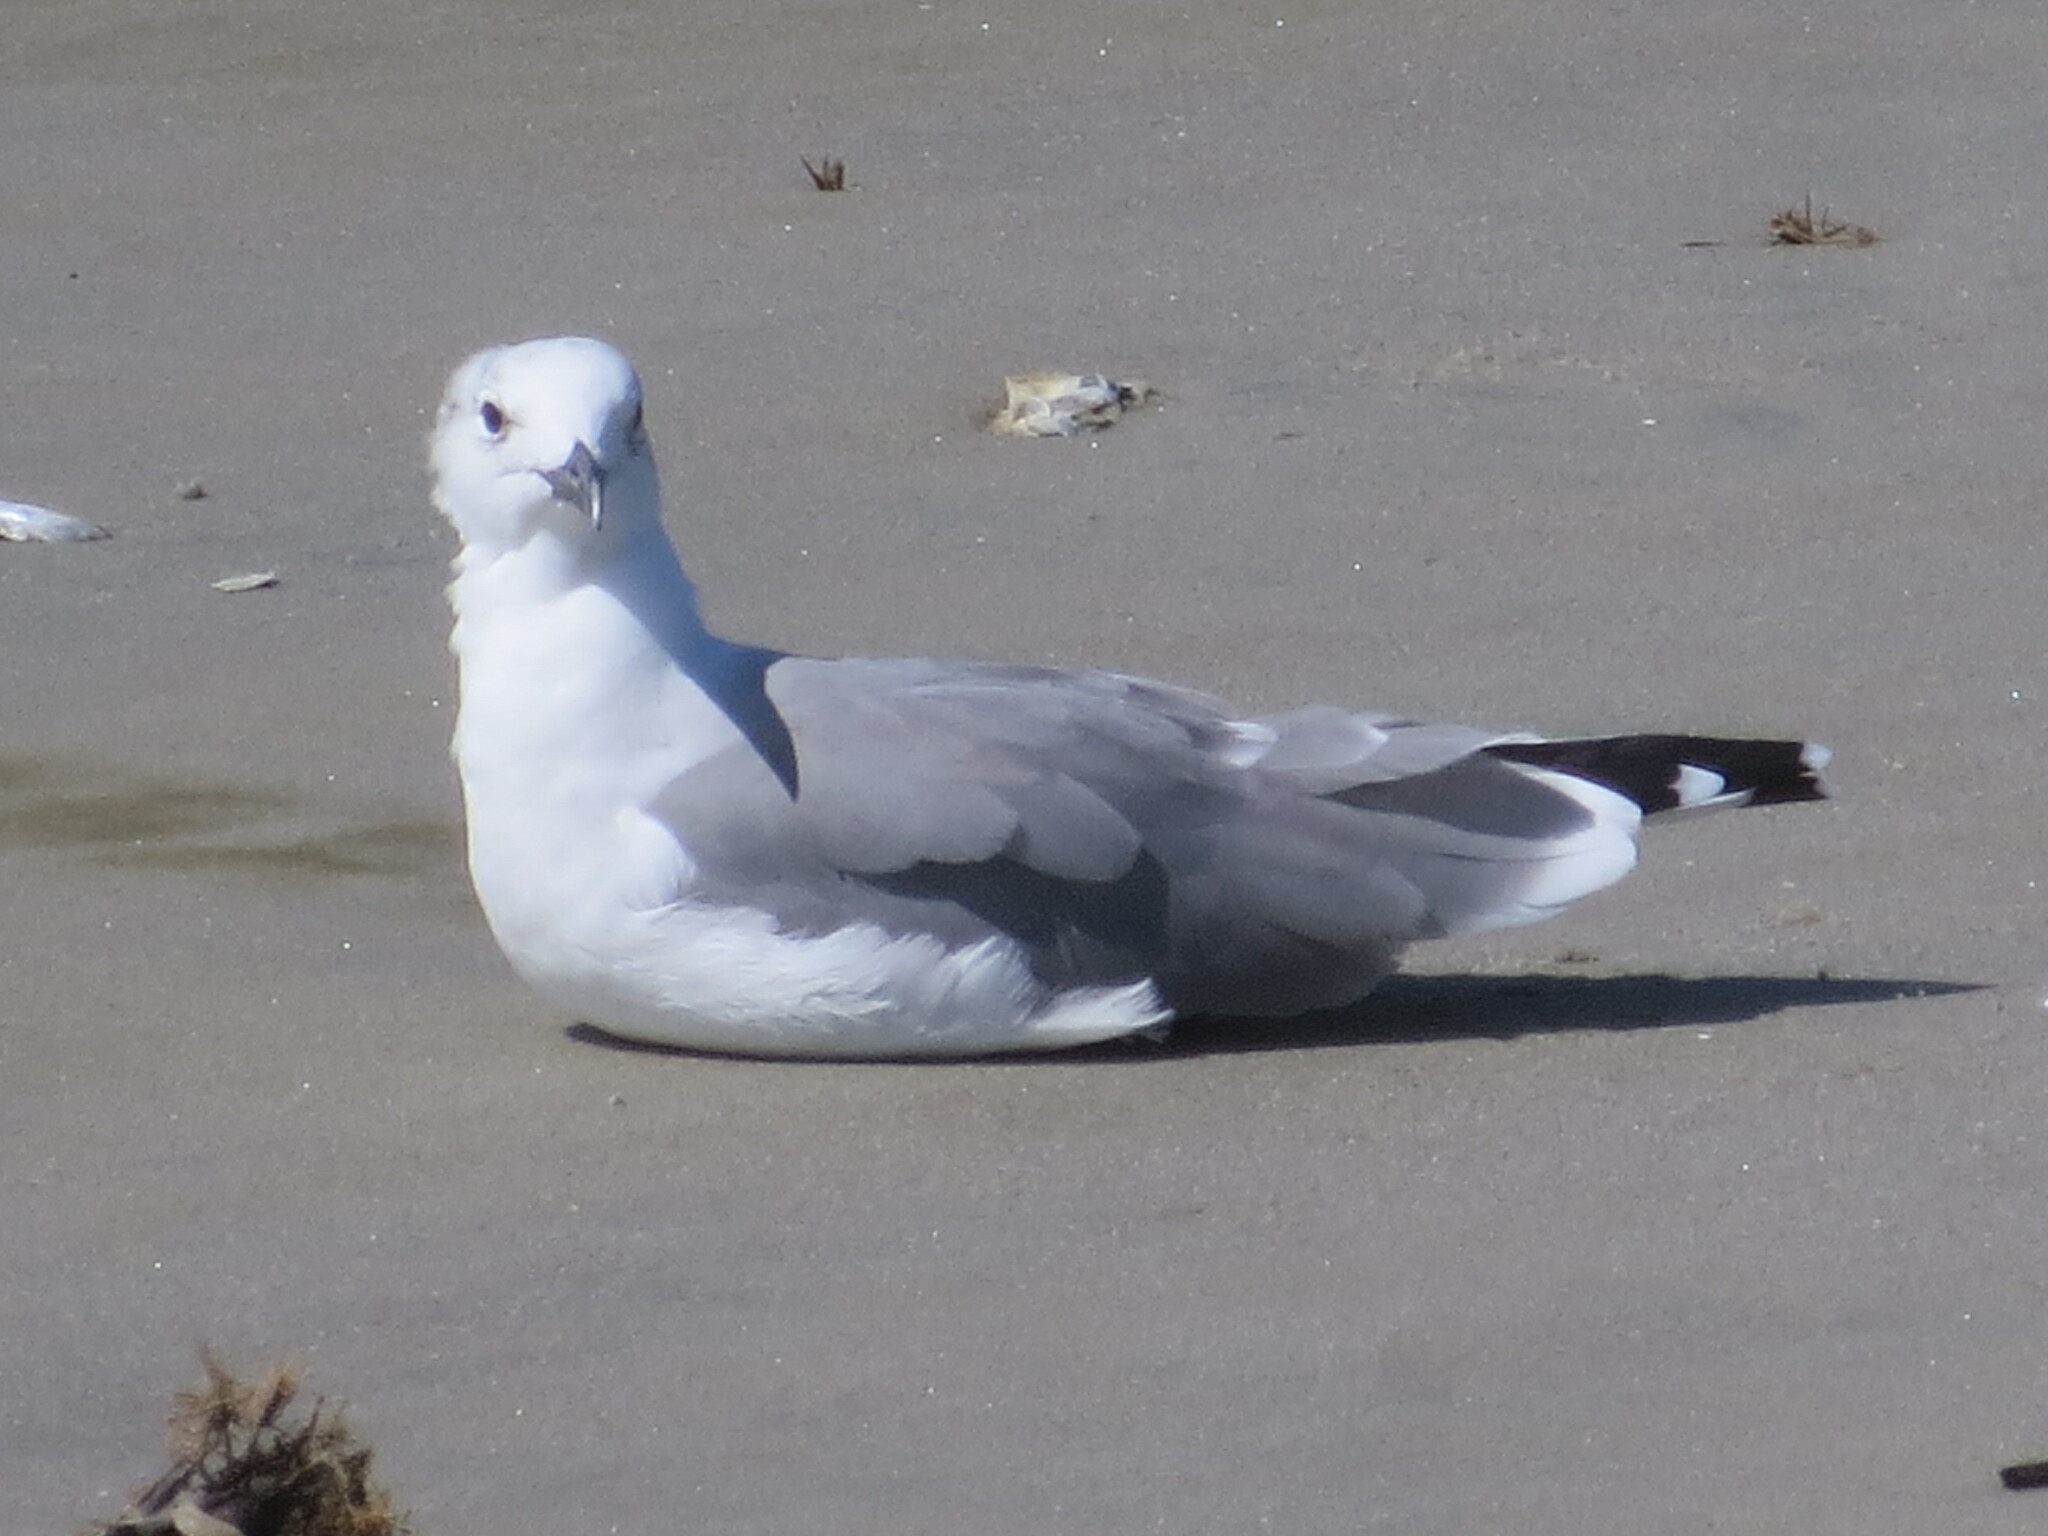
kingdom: Animalia
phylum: Chordata
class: Aves
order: Charadriiformes
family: Laridae
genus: Leucophaeus
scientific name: Leucophaeus atricilla
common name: Laughing gull
